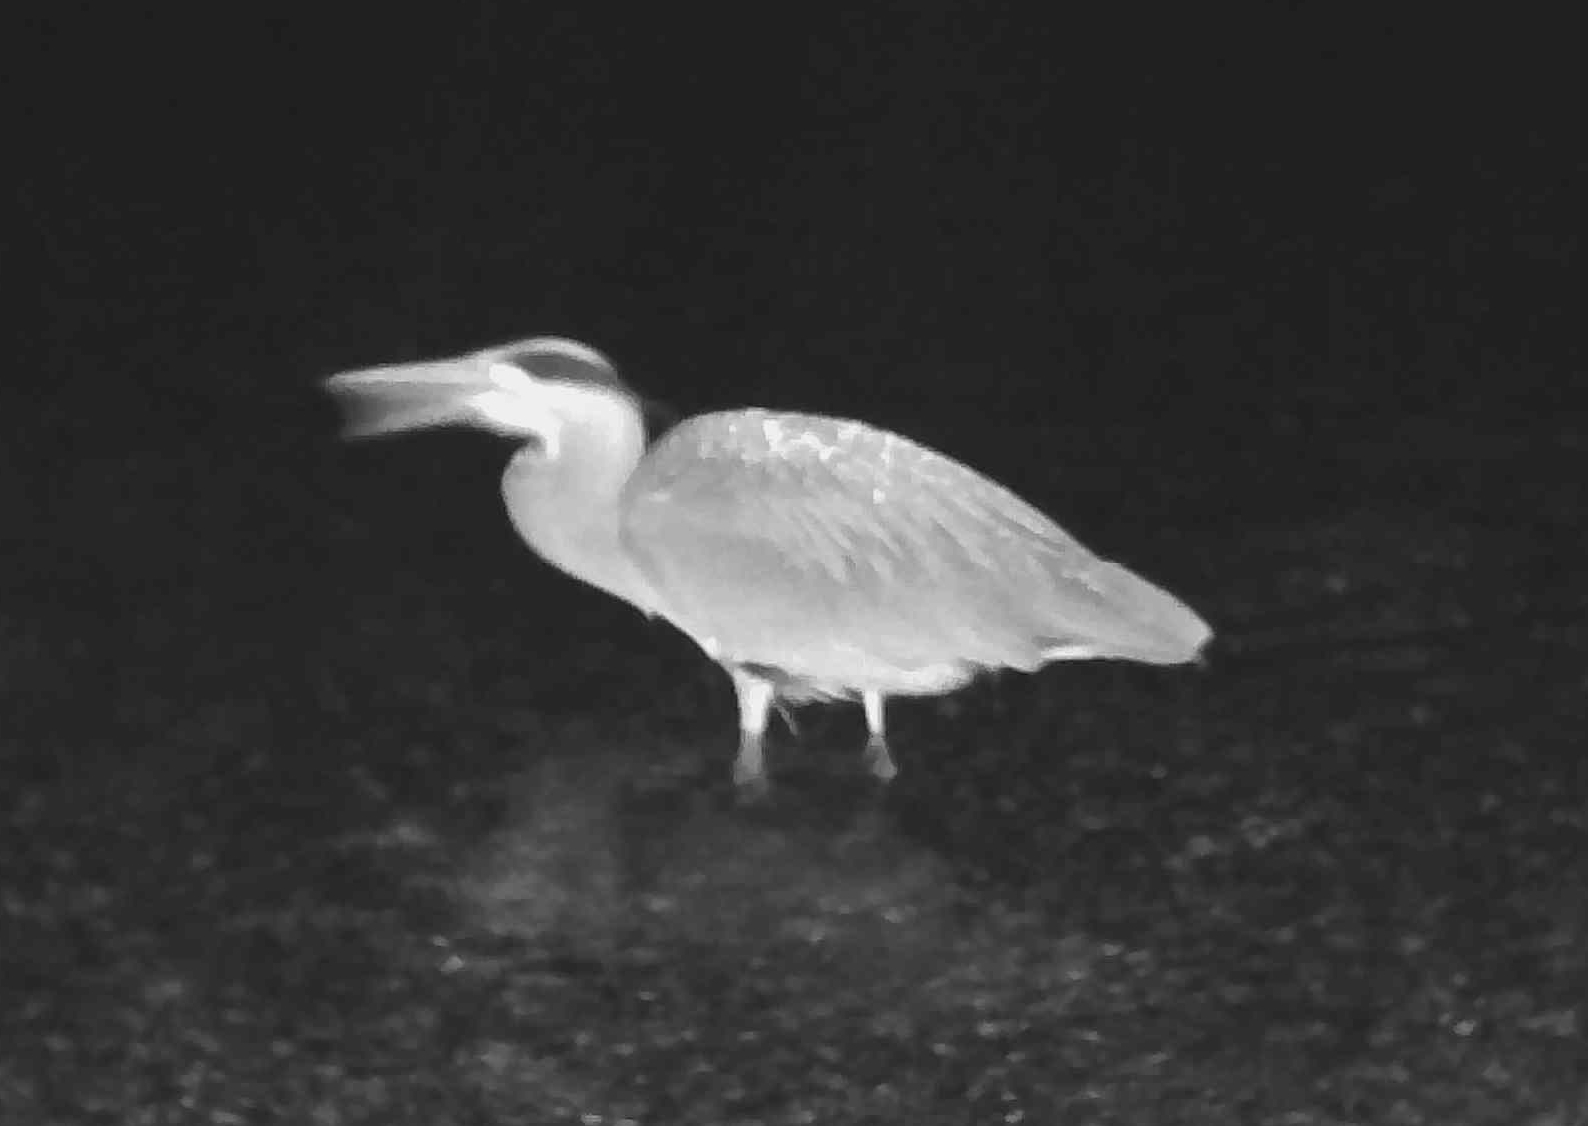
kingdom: Animalia
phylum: Chordata
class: Aves
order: Pelecaniformes
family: Ardeidae
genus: Ardea
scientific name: Ardea herodias
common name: Great blue heron
